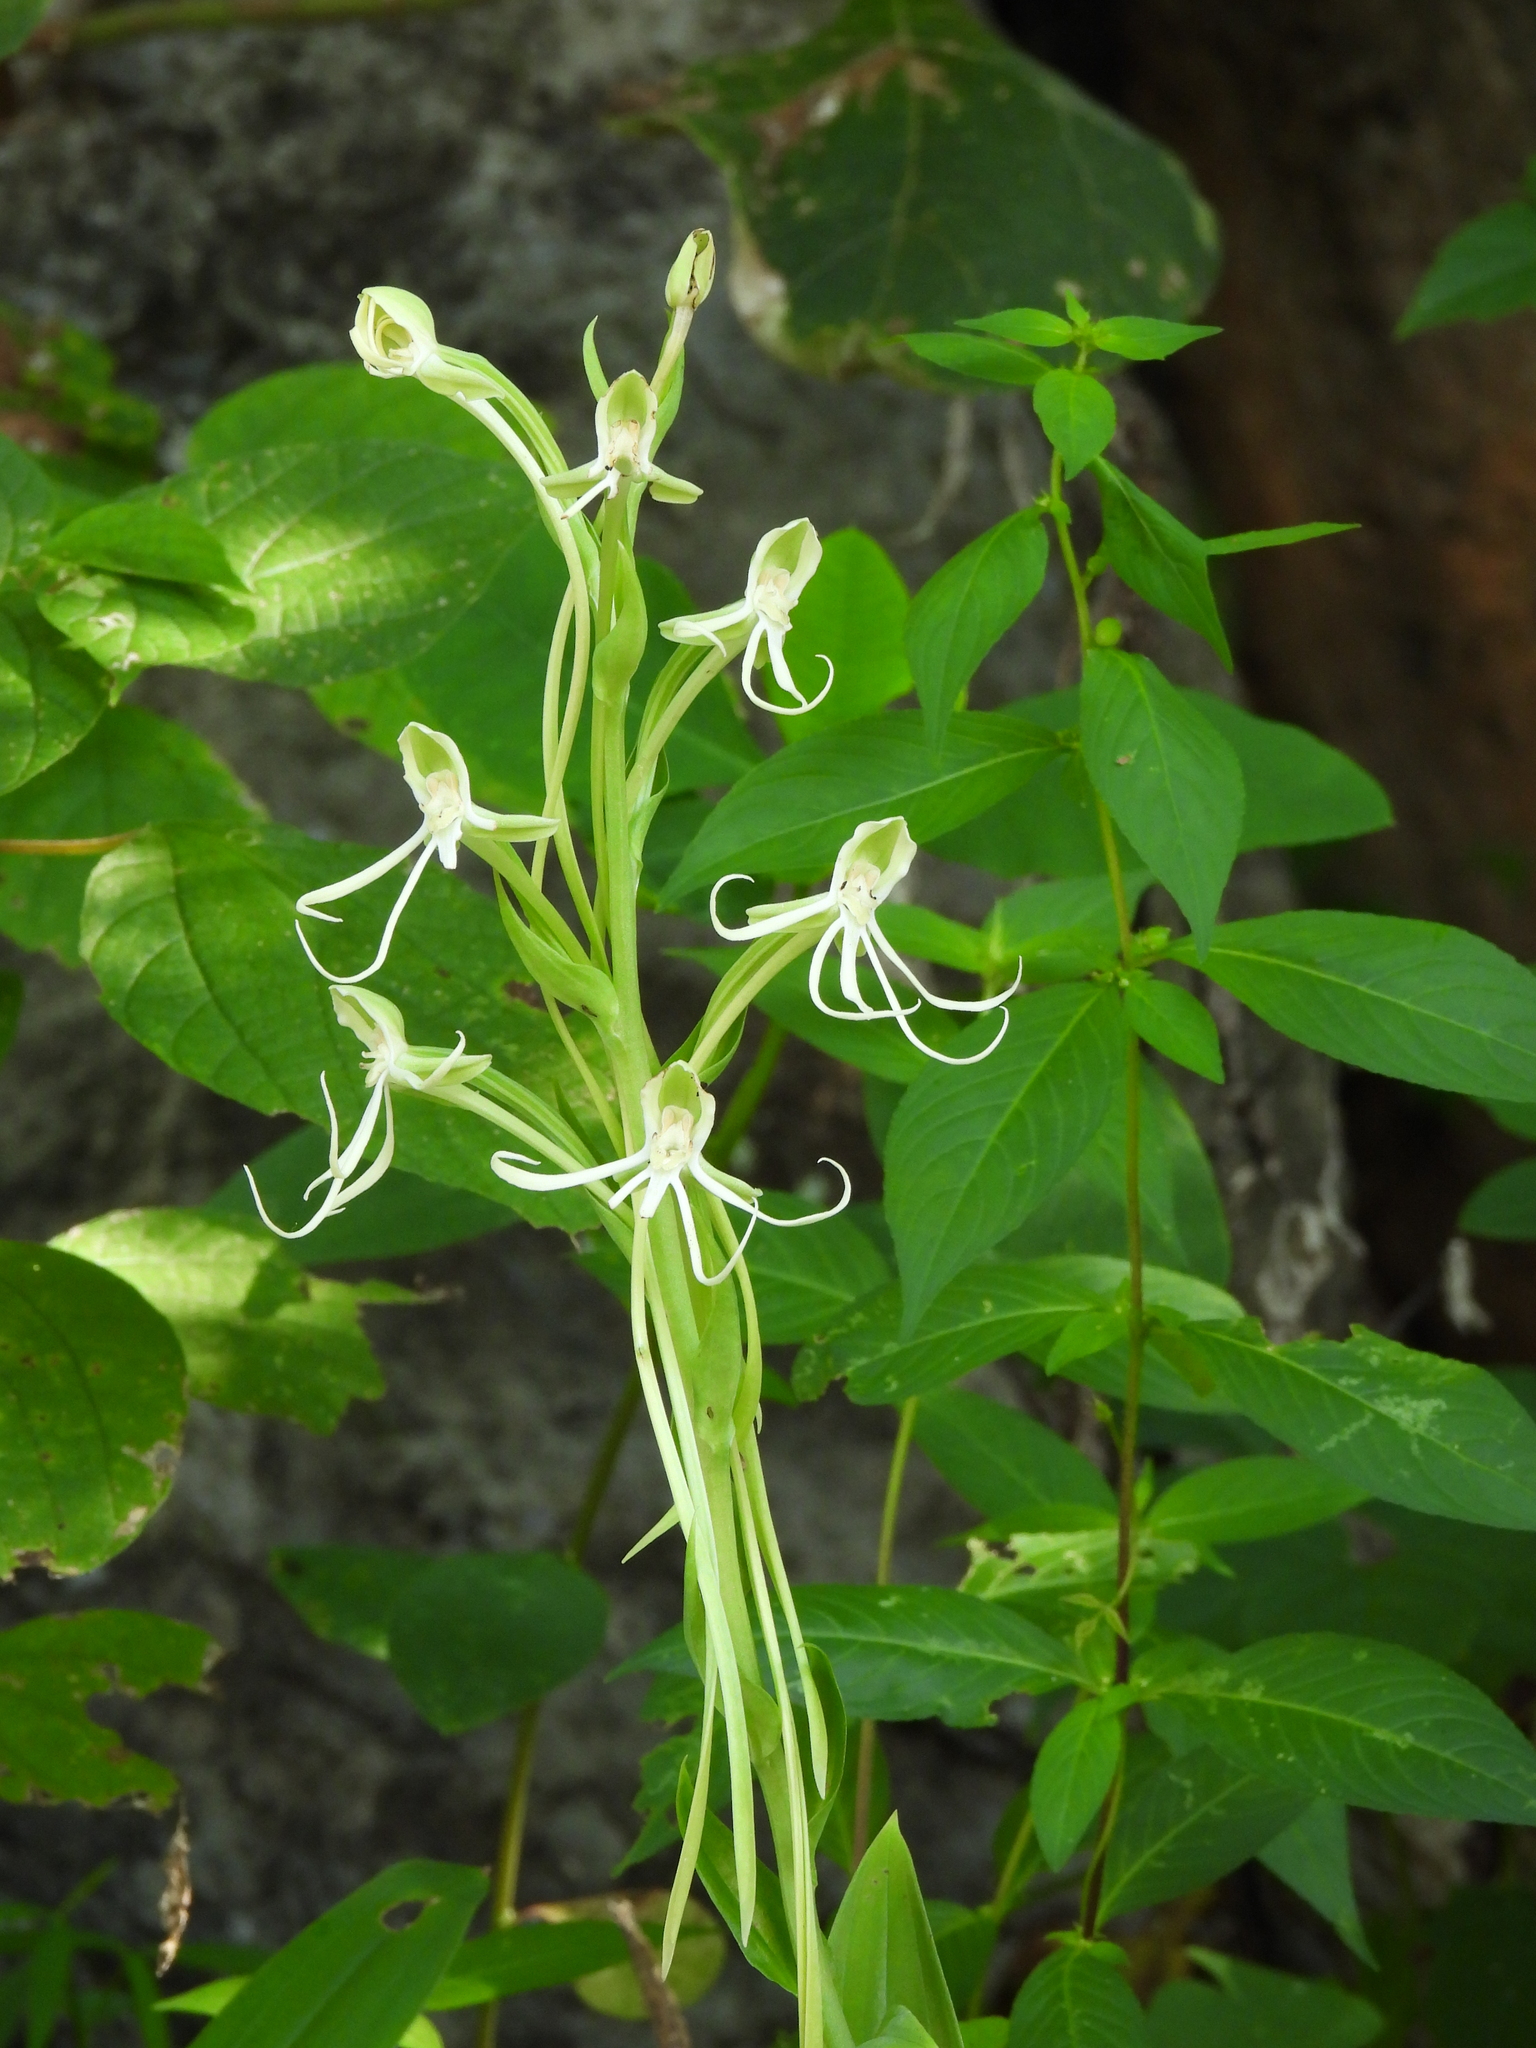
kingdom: Plantae
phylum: Tracheophyta
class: Liliopsida
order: Asparagales
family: Orchidaceae
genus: Habenaria
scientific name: Habenaria macroceratitis
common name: Big-horn bog orchid
